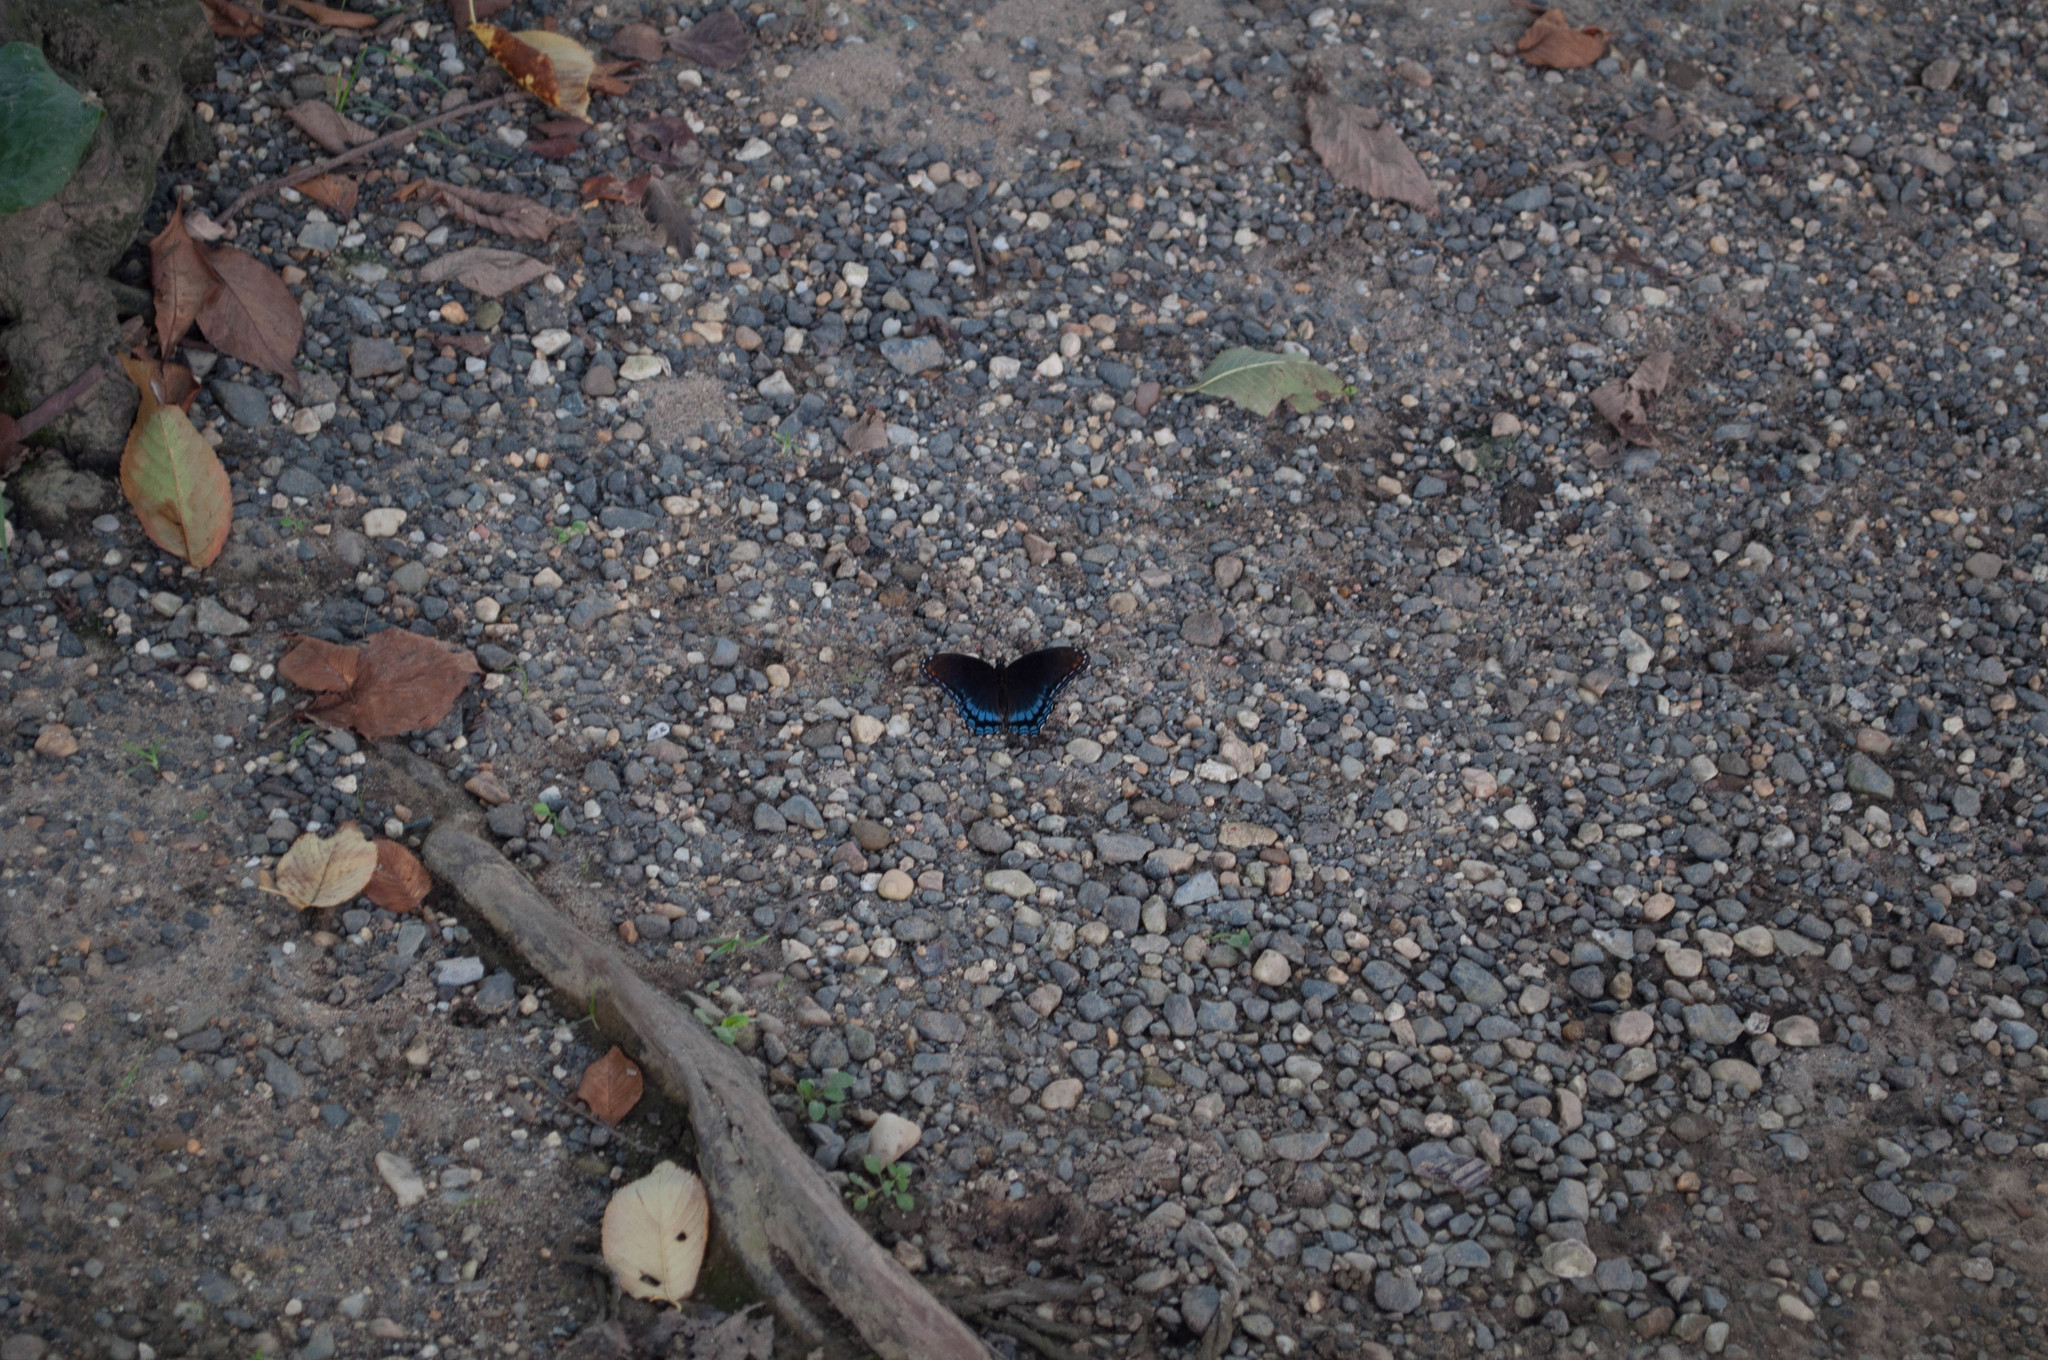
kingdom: Animalia
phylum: Arthropoda
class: Insecta
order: Lepidoptera
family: Nymphalidae
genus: Limenitis
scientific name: Limenitis astyanax
